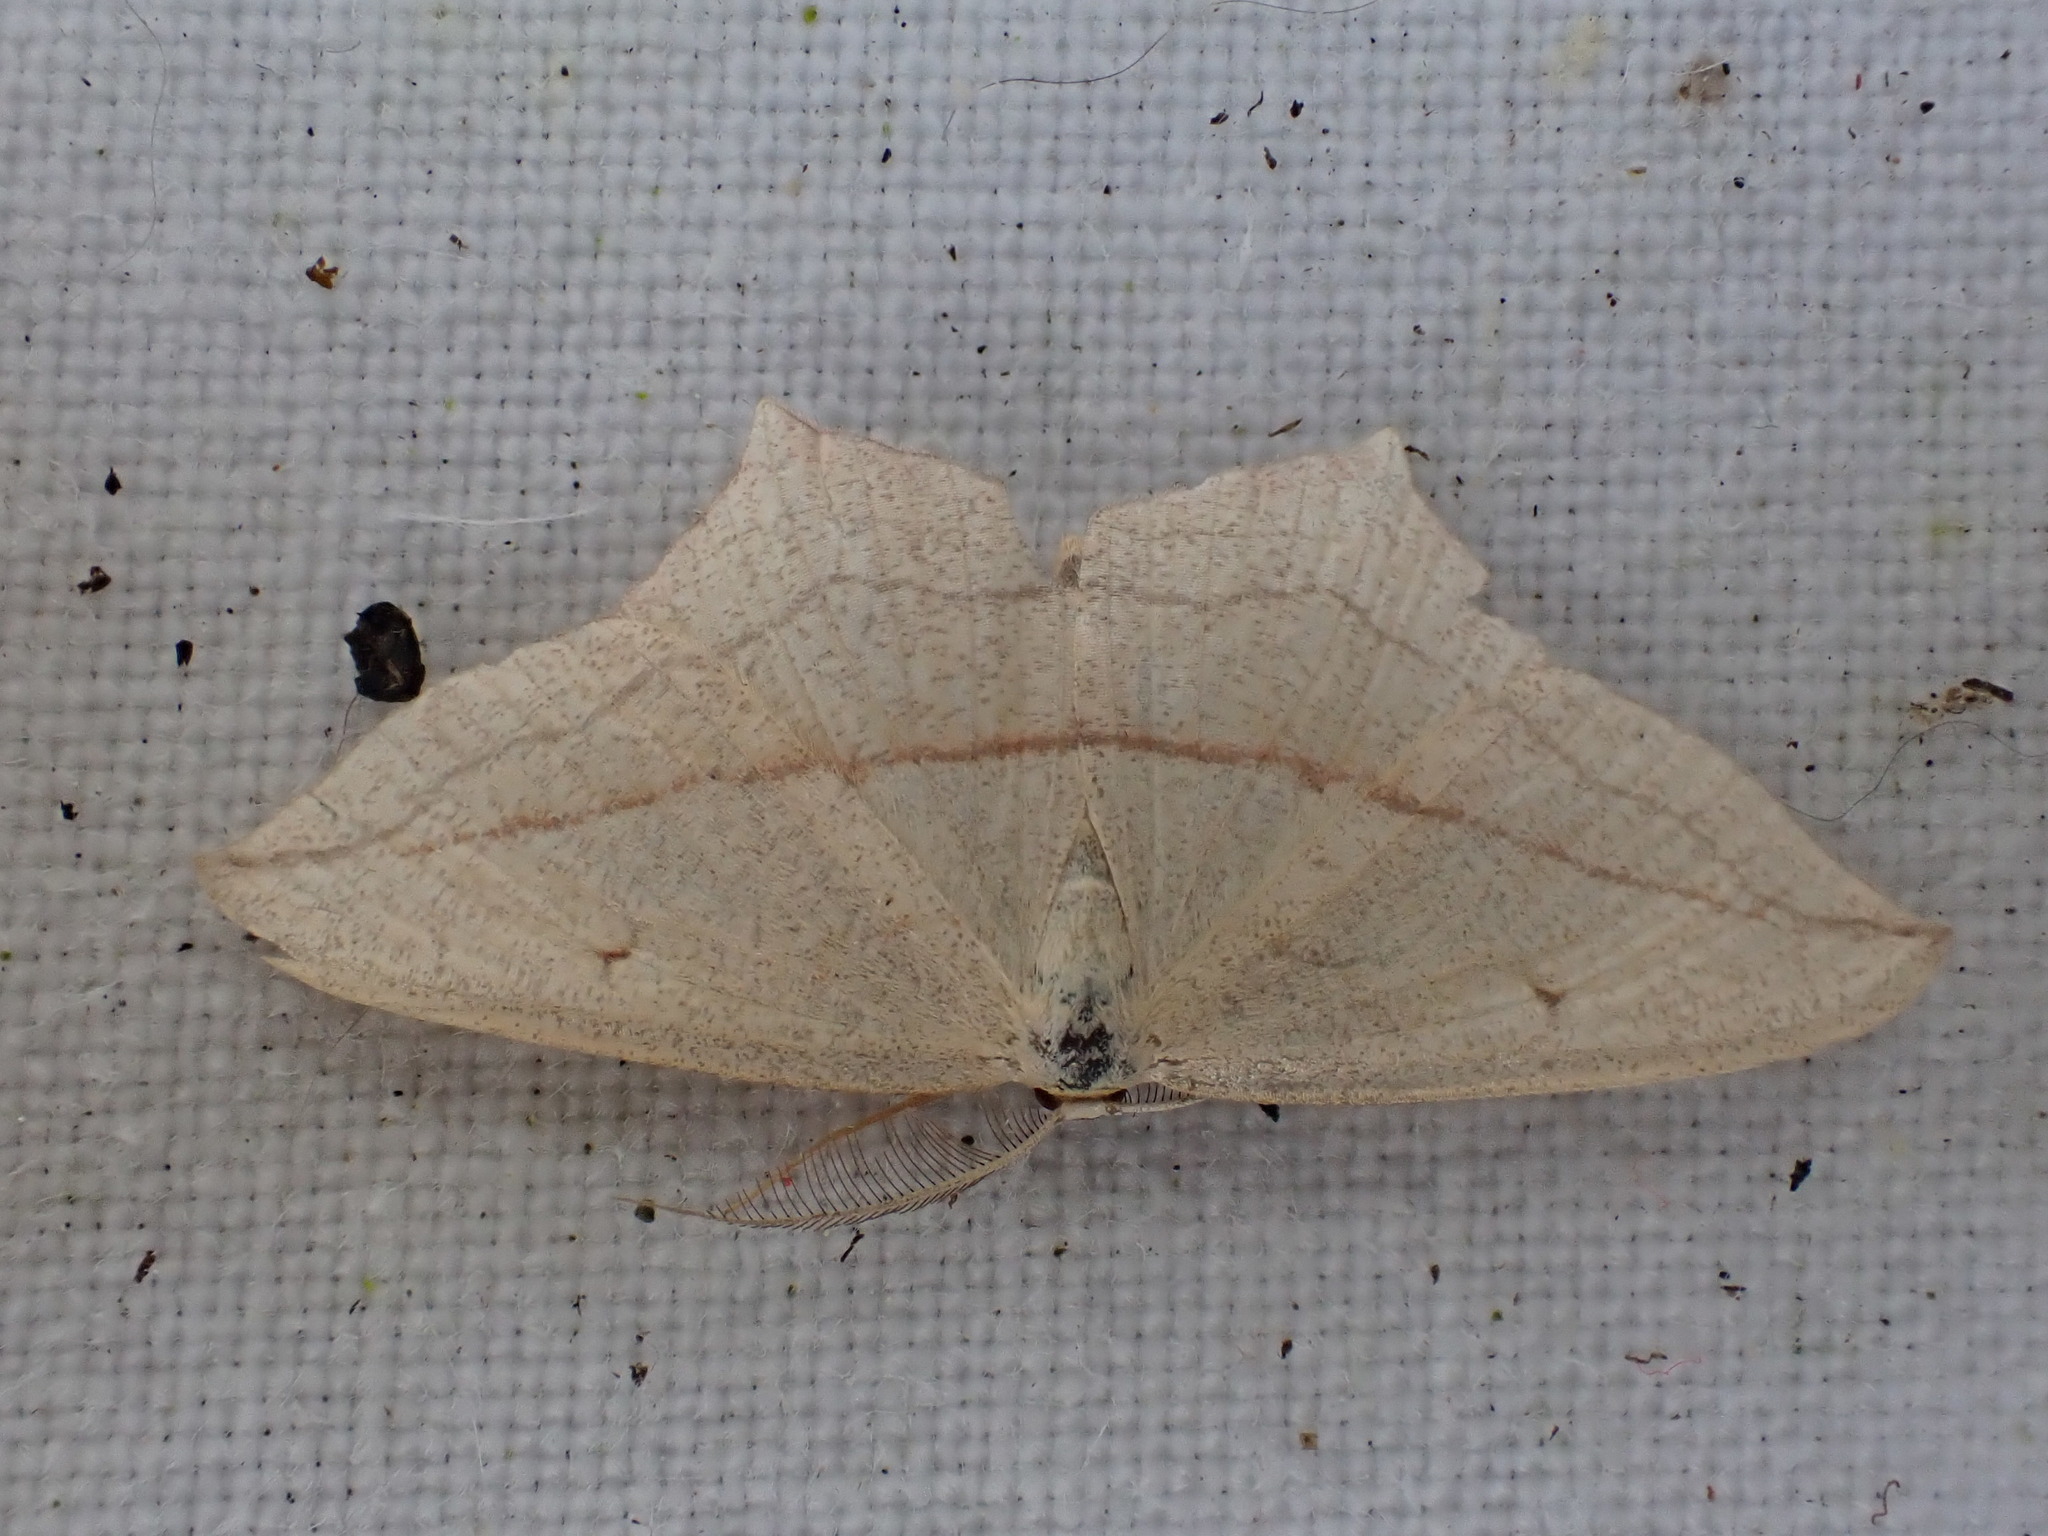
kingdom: Animalia
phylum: Arthropoda
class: Insecta
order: Lepidoptera
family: Geometridae
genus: Timandra
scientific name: Timandra comae
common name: Blood-vein
